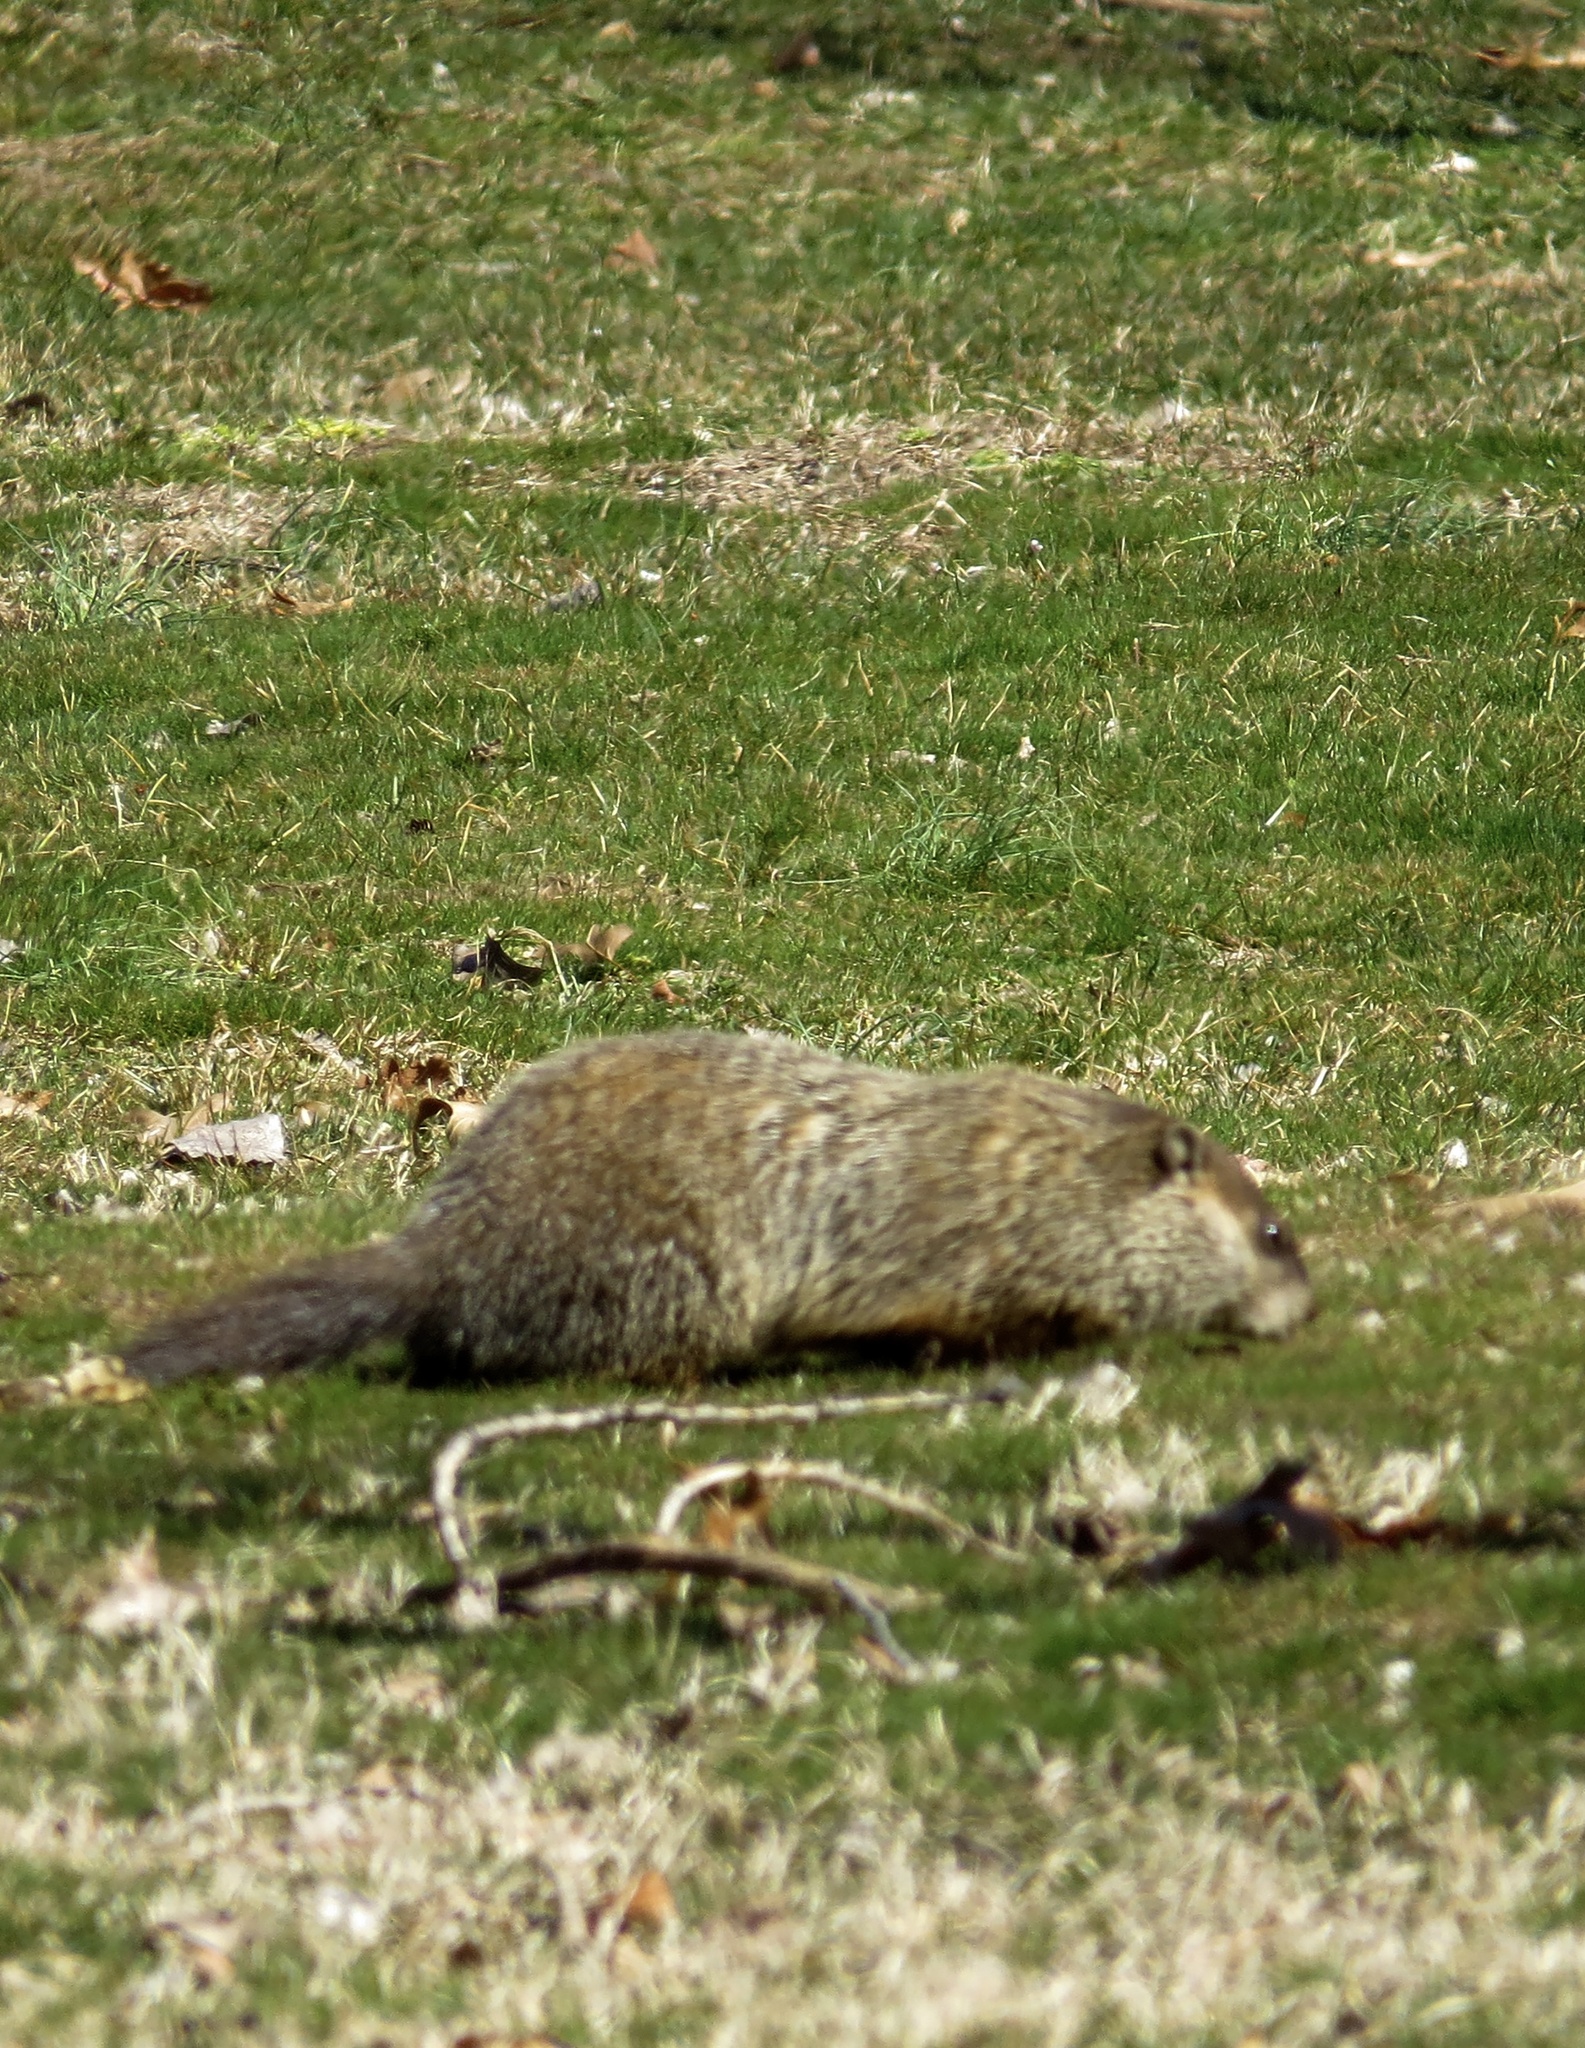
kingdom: Animalia
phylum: Chordata
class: Mammalia
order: Rodentia
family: Sciuridae
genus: Marmota
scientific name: Marmota monax
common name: Groundhog
